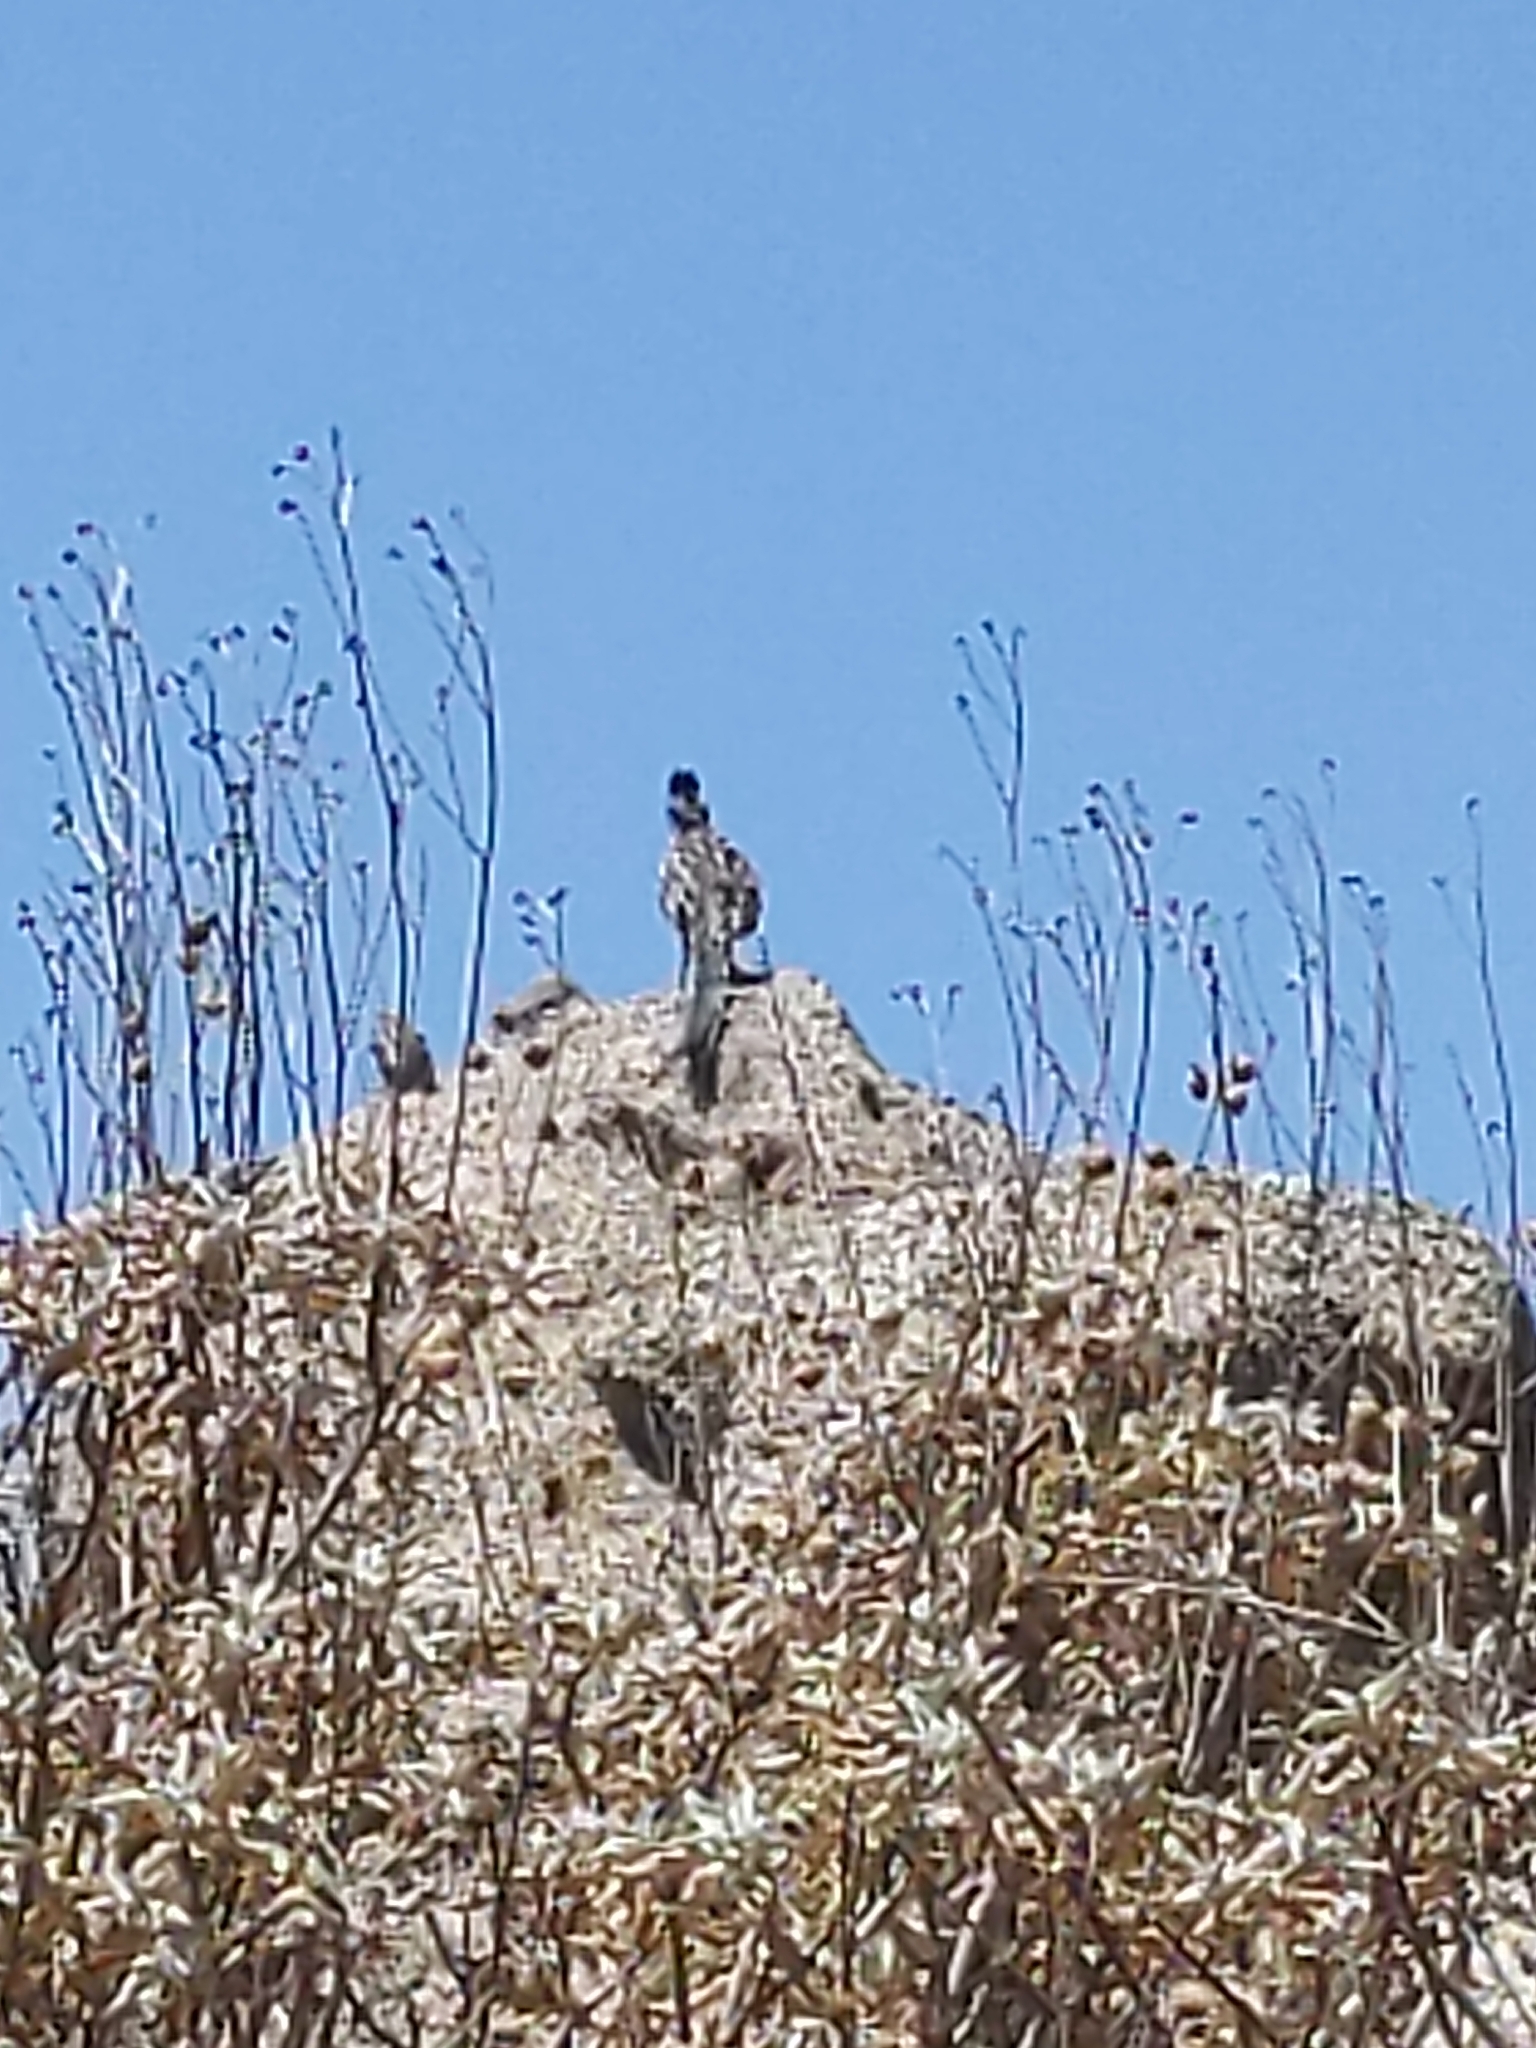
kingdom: Animalia
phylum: Chordata
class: Aves
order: Cuculiformes
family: Cuculidae
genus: Geococcyx
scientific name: Geococcyx californianus
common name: Greater roadrunner
